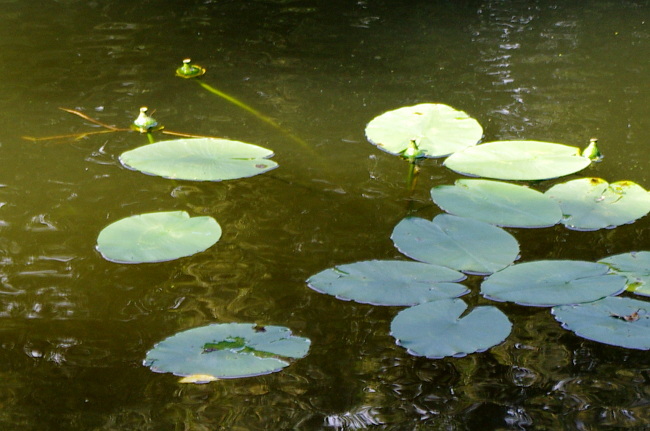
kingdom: Plantae
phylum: Tracheophyta
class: Magnoliopsida
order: Nymphaeales
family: Nymphaeaceae
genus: Nuphar
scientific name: Nuphar lutea
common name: Yellow water-lily
